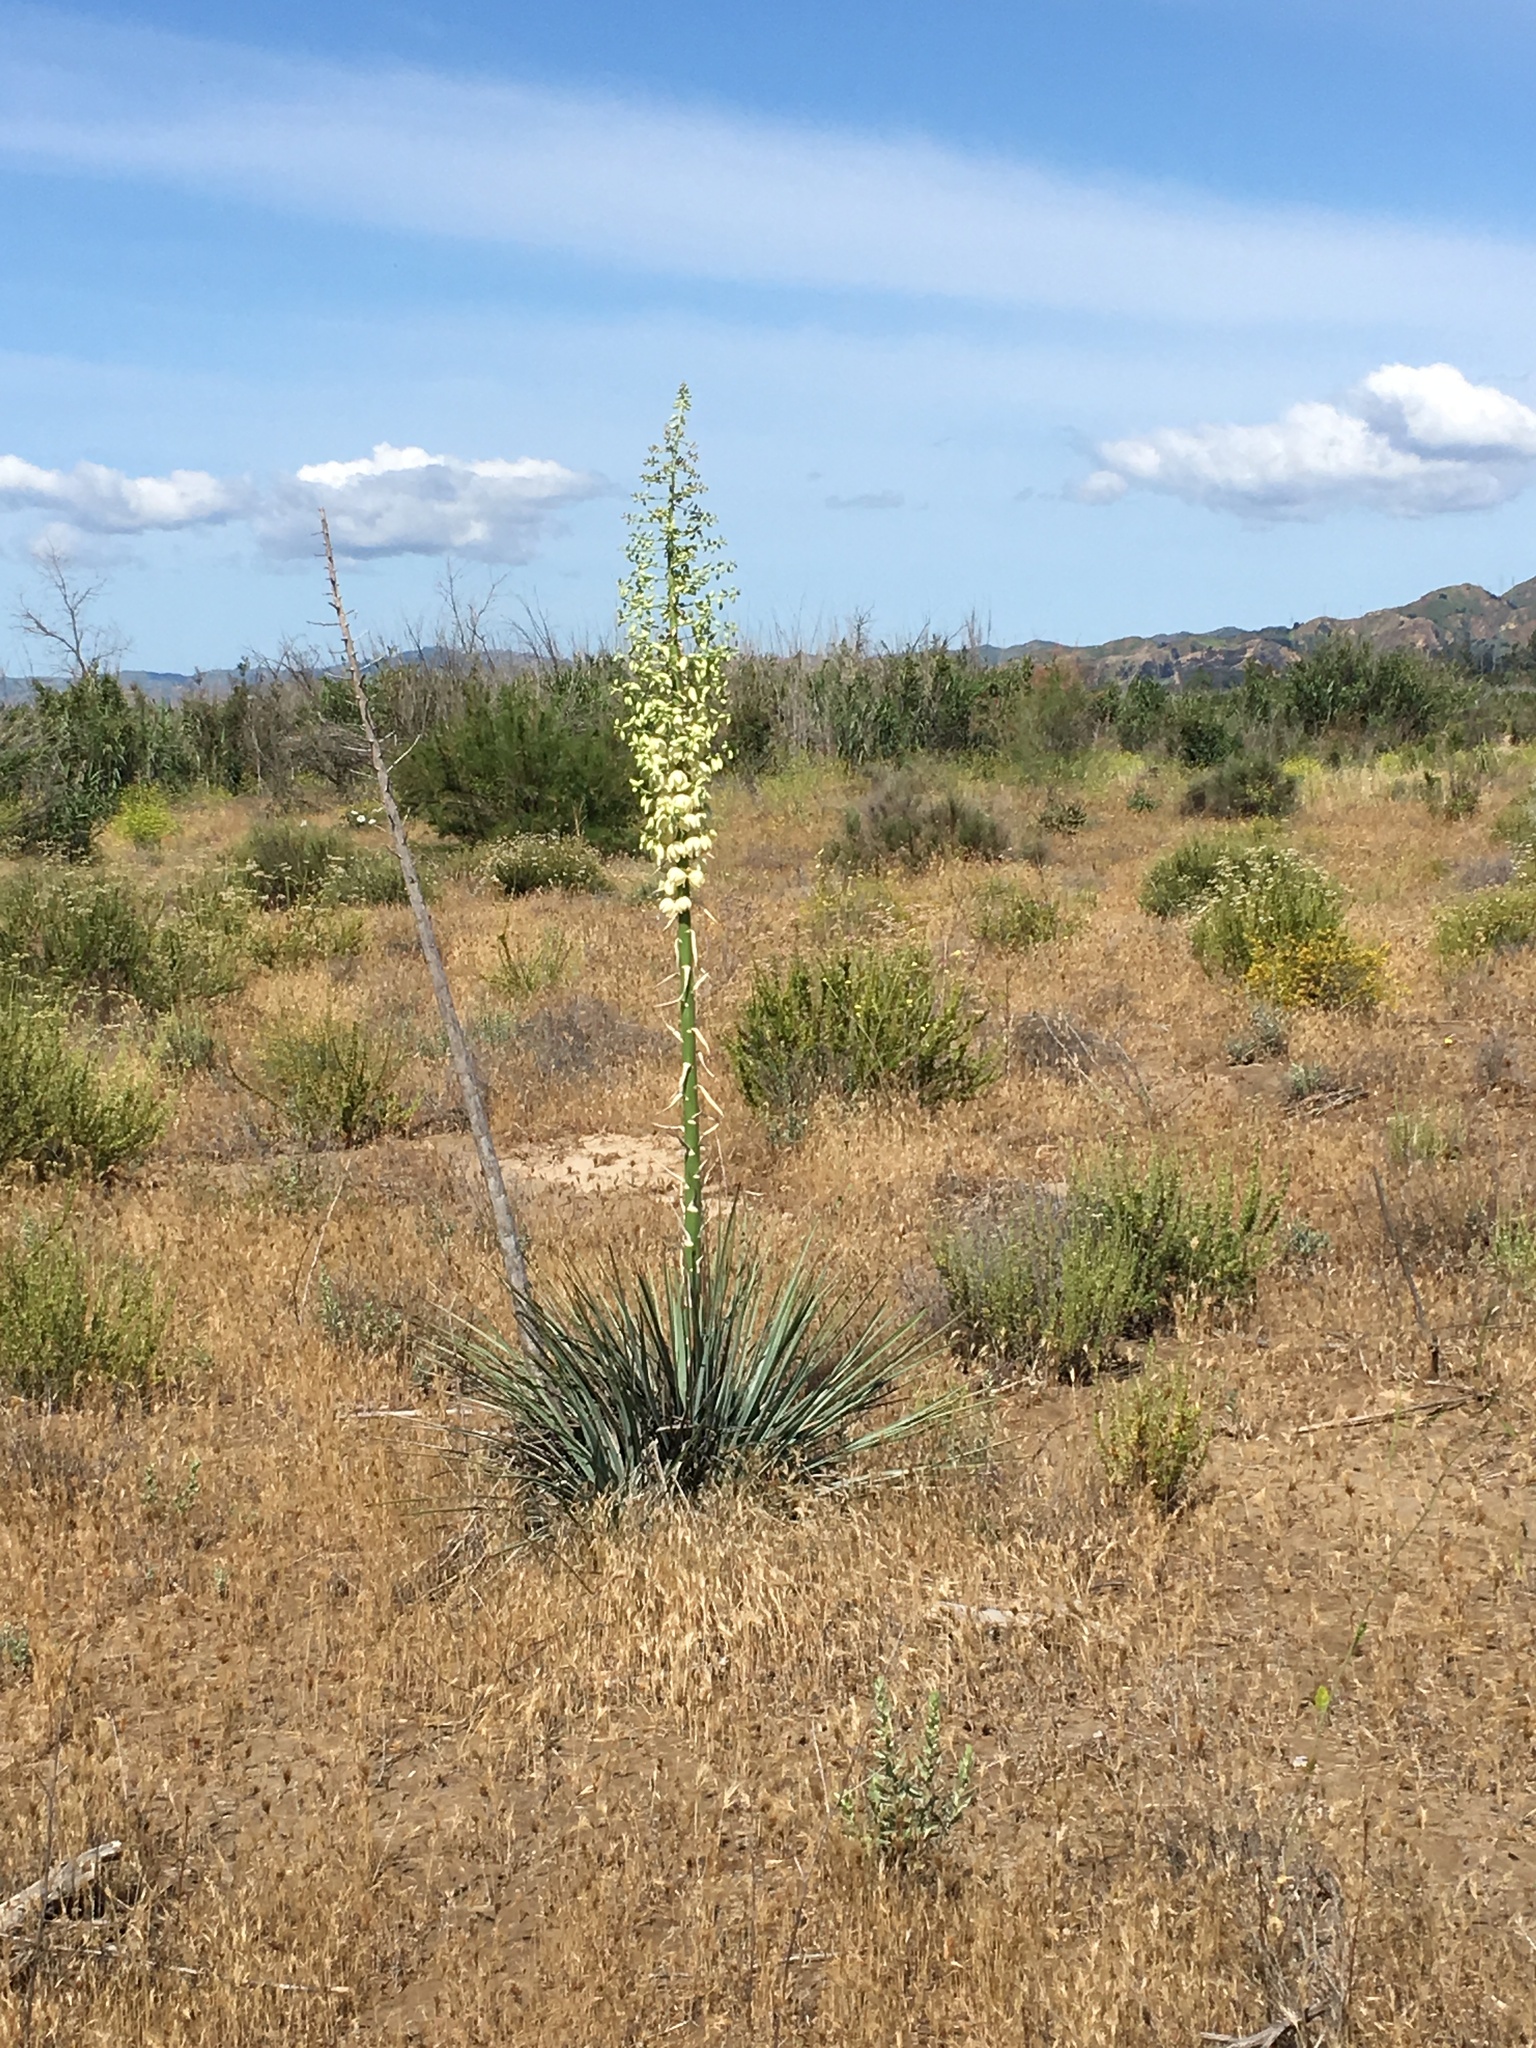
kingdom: Plantae
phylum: Tracheophyta
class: Liliopsida
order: Asparagales
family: Asparagaceae
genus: Hesperoyucca
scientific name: Hesperoyucca whipplei
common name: Our lord's-candle
